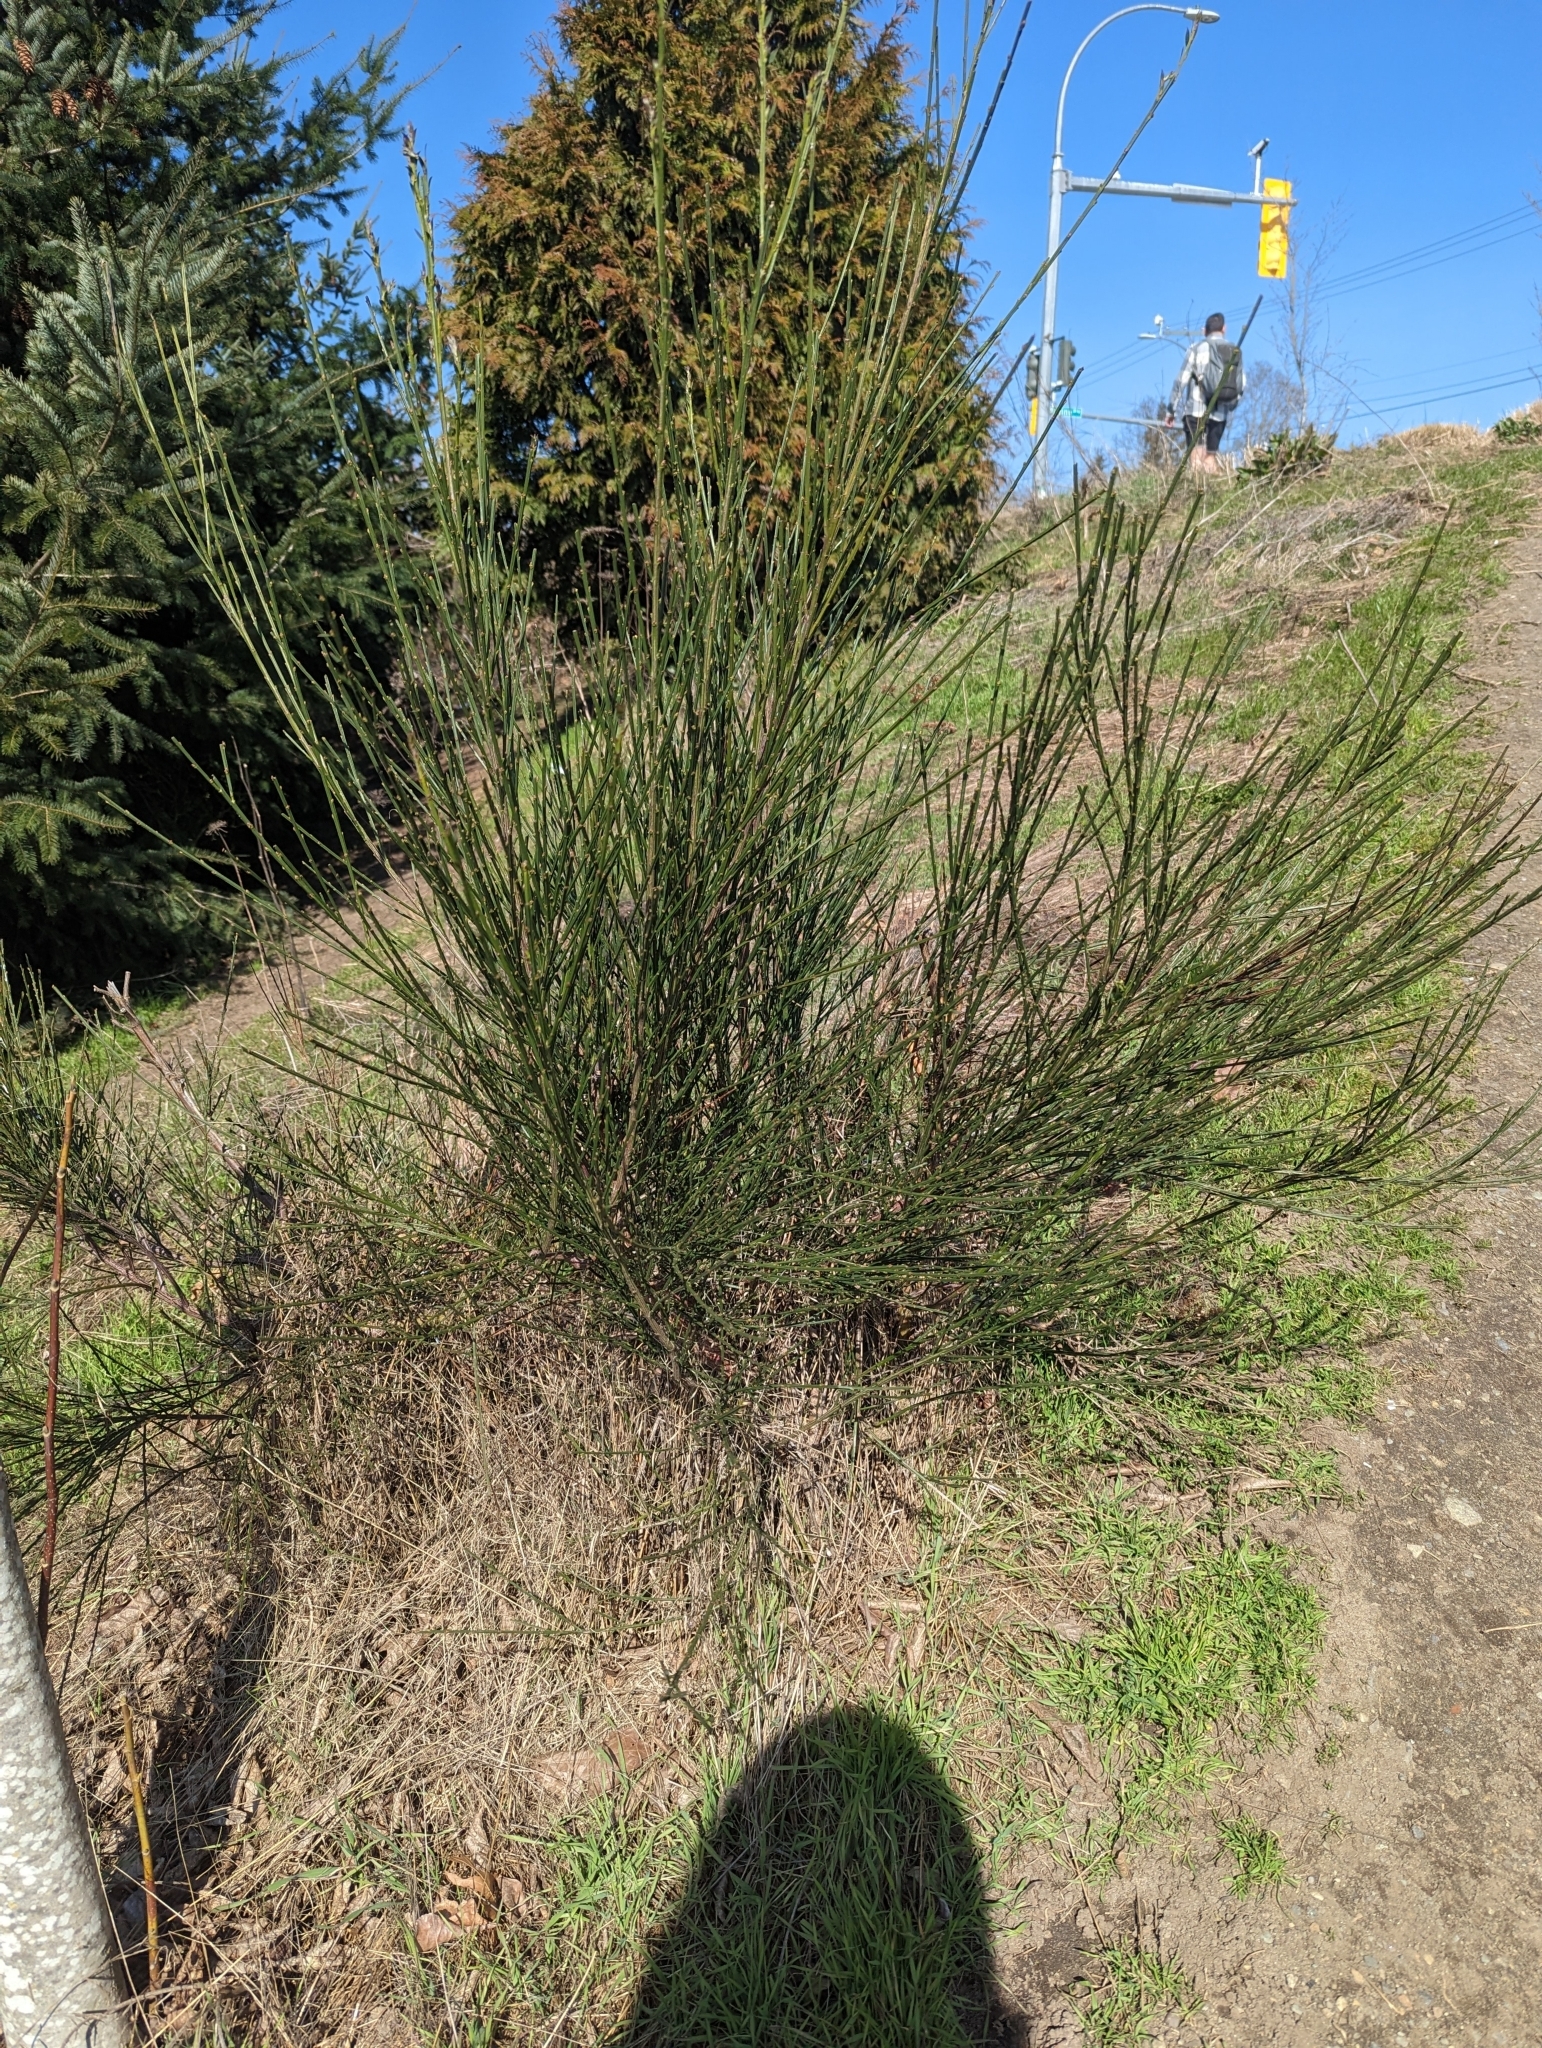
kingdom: Plantae
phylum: Tracheophyta
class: Magnoliopsida
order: Fabales
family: Fabaceae
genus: Cytisus
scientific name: Cytisus scoparius
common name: Scotch broom
